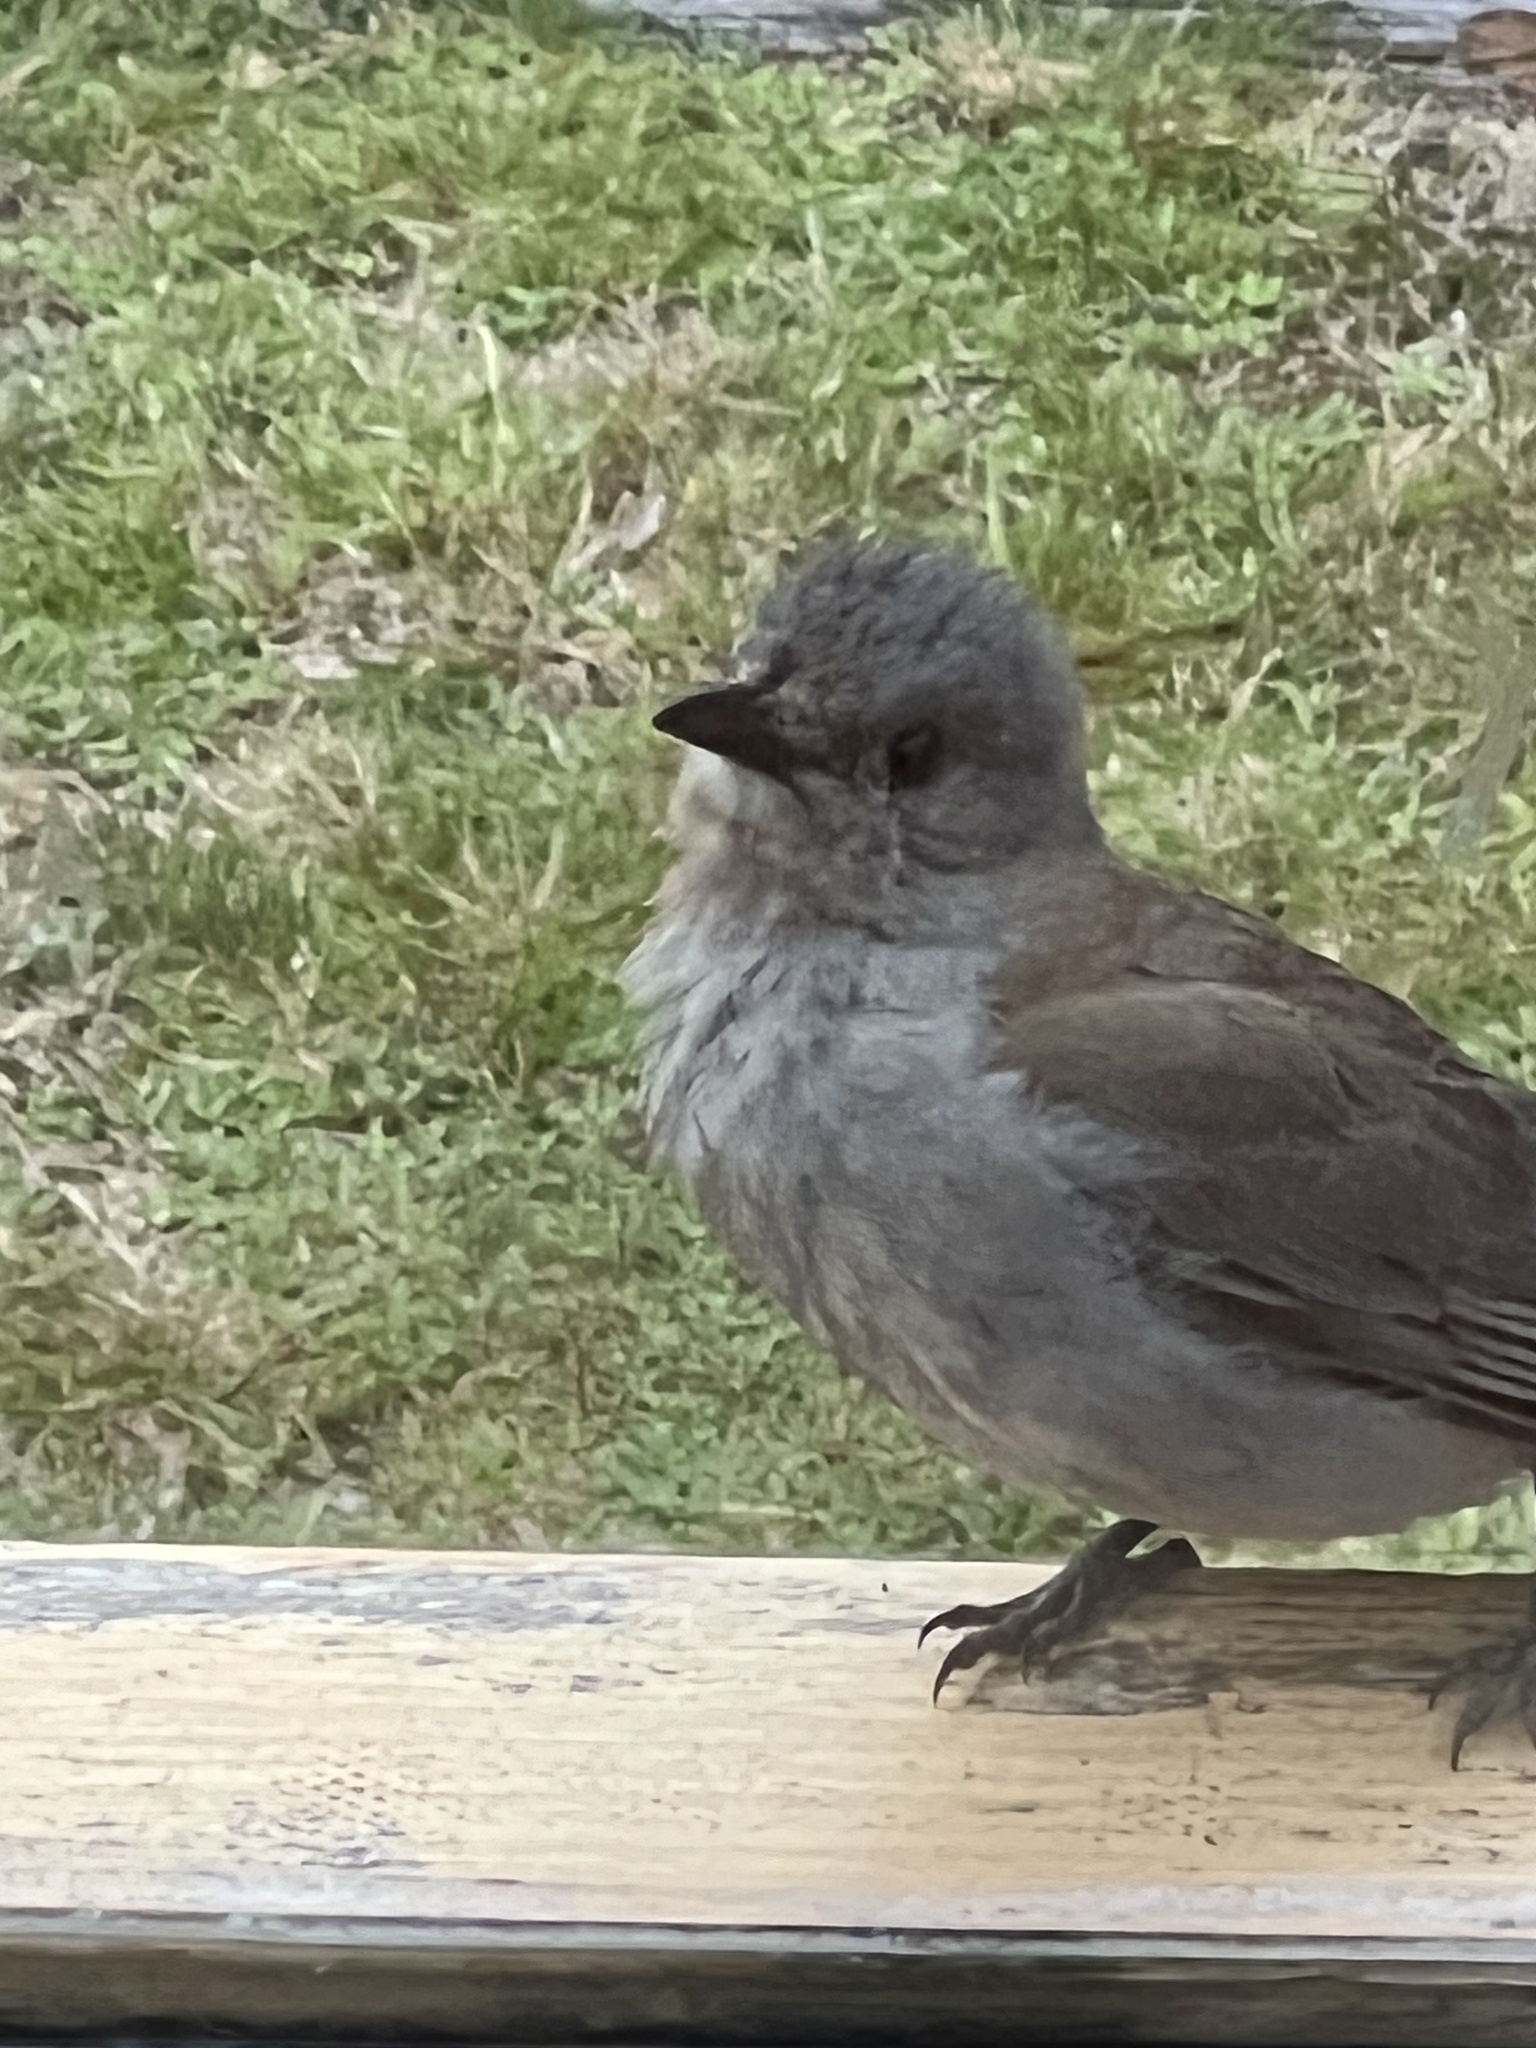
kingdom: Animalia
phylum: Chordata
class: Aves
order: Passeriformes
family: Pachycephalidae
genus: Colluricincla
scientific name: Colluricincla harmonica
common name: Grey shrikethrush
